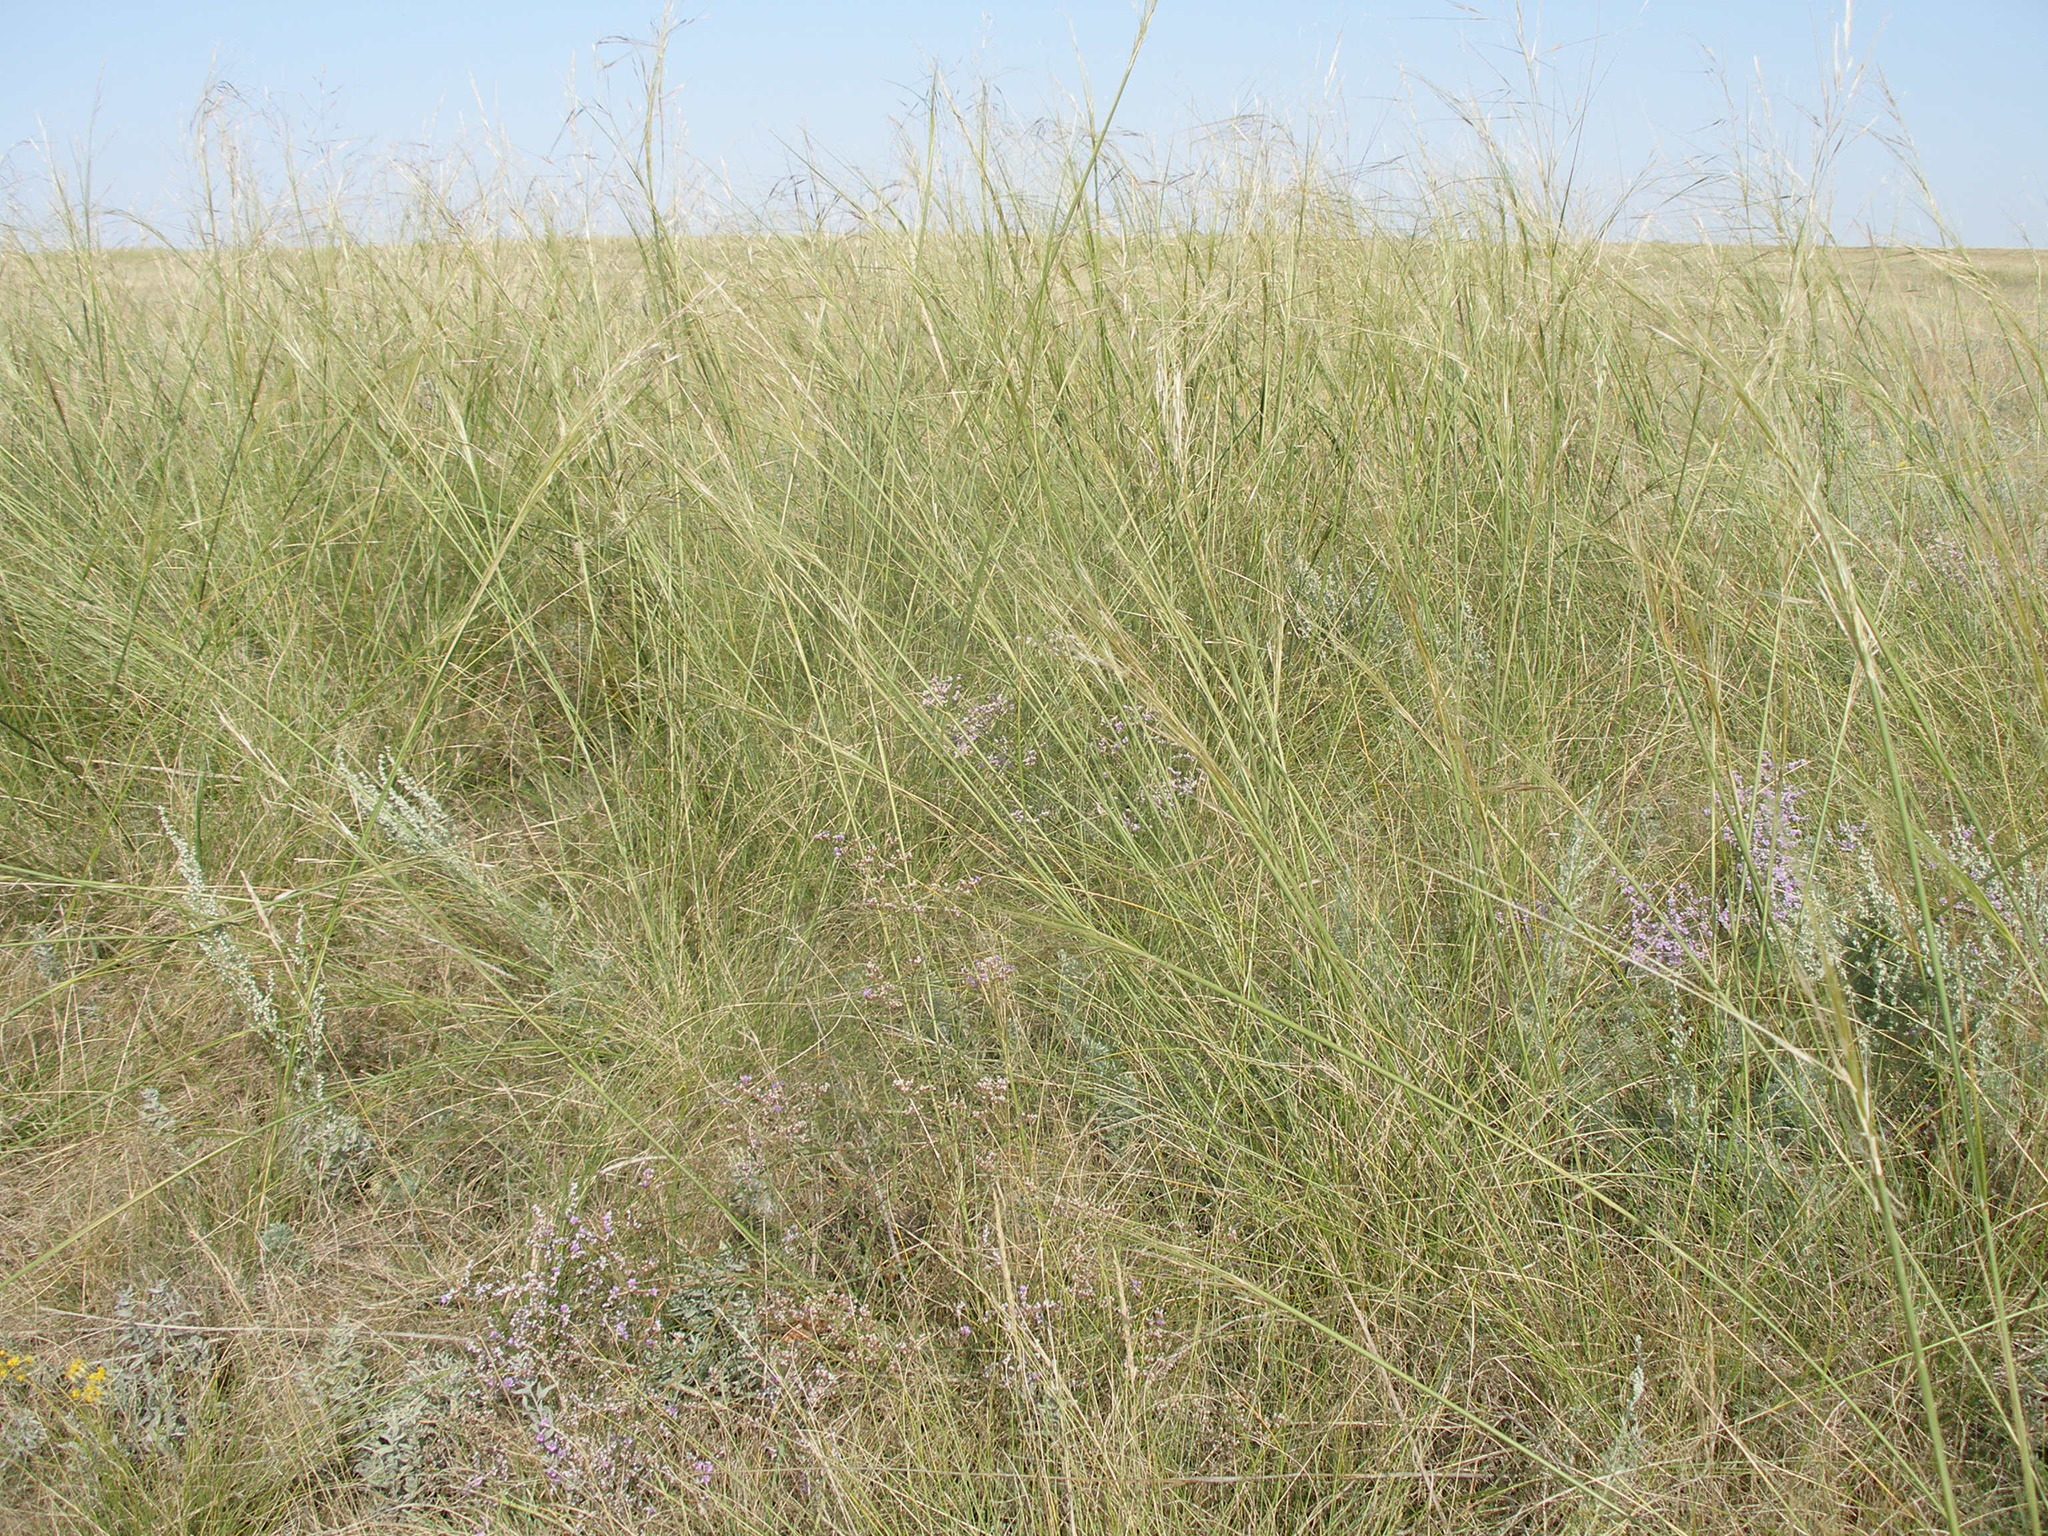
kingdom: Plantae
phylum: Tracheophyta
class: Liliopsida
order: Poales
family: Poaceae
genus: Stipa
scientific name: Stipa capillata
